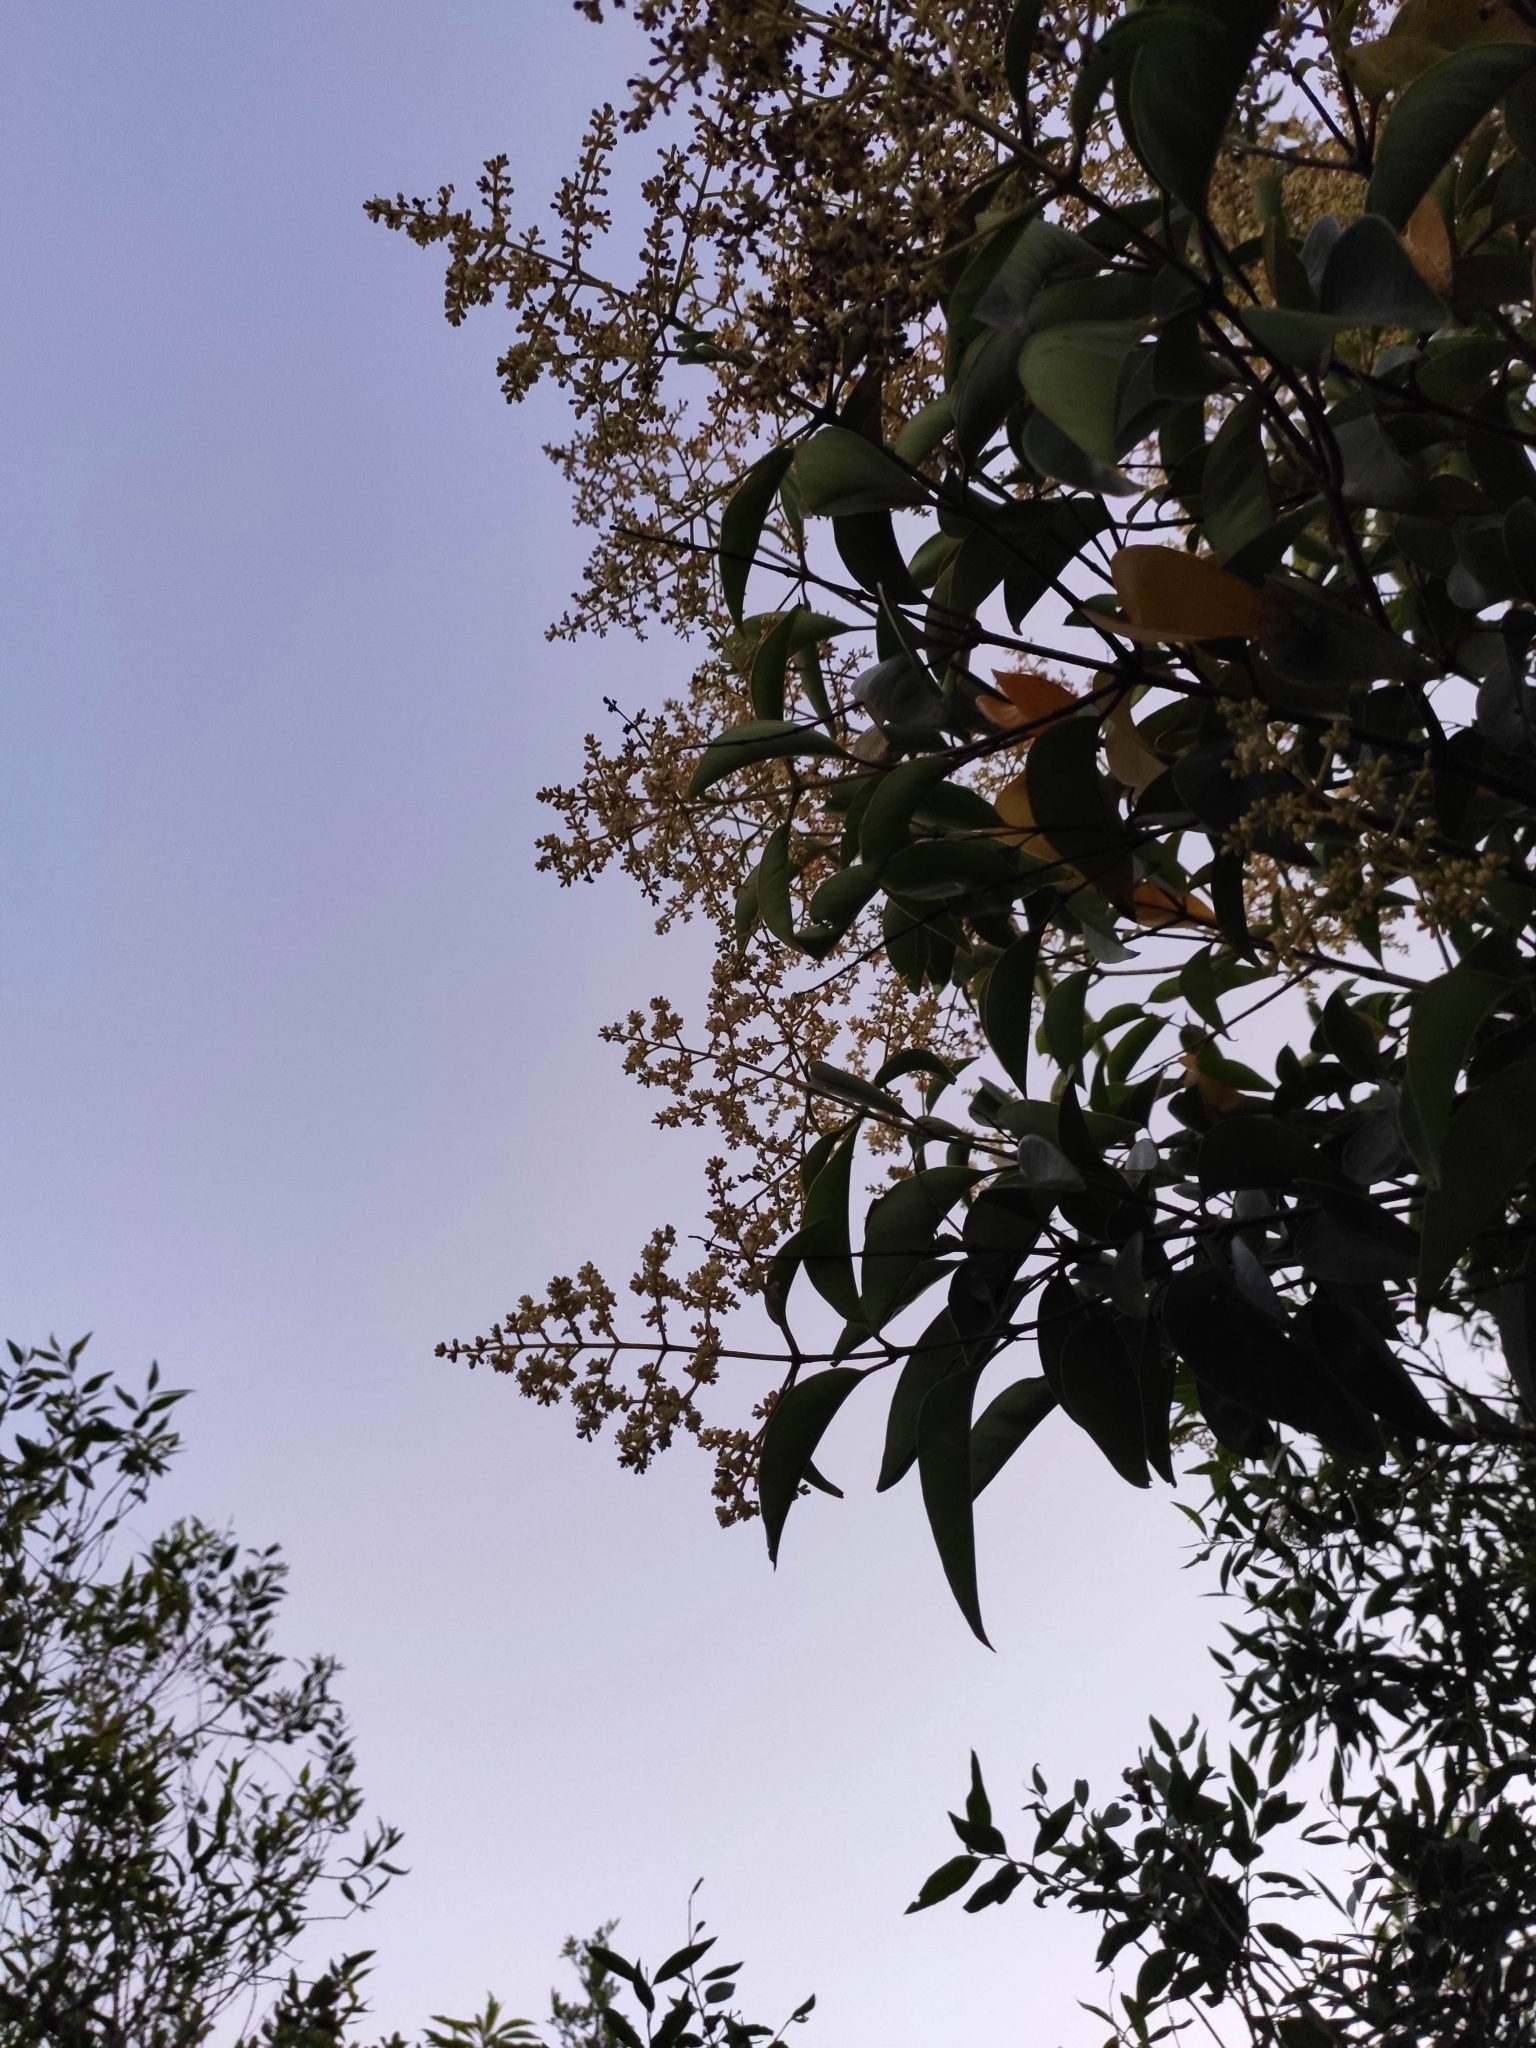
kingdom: Plantae
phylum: Tracheophyta
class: Magnoliopsida
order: Lamiales
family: Oleaceae
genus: Ligustrum
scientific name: Ligustrum lucidum
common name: Glossy privet
